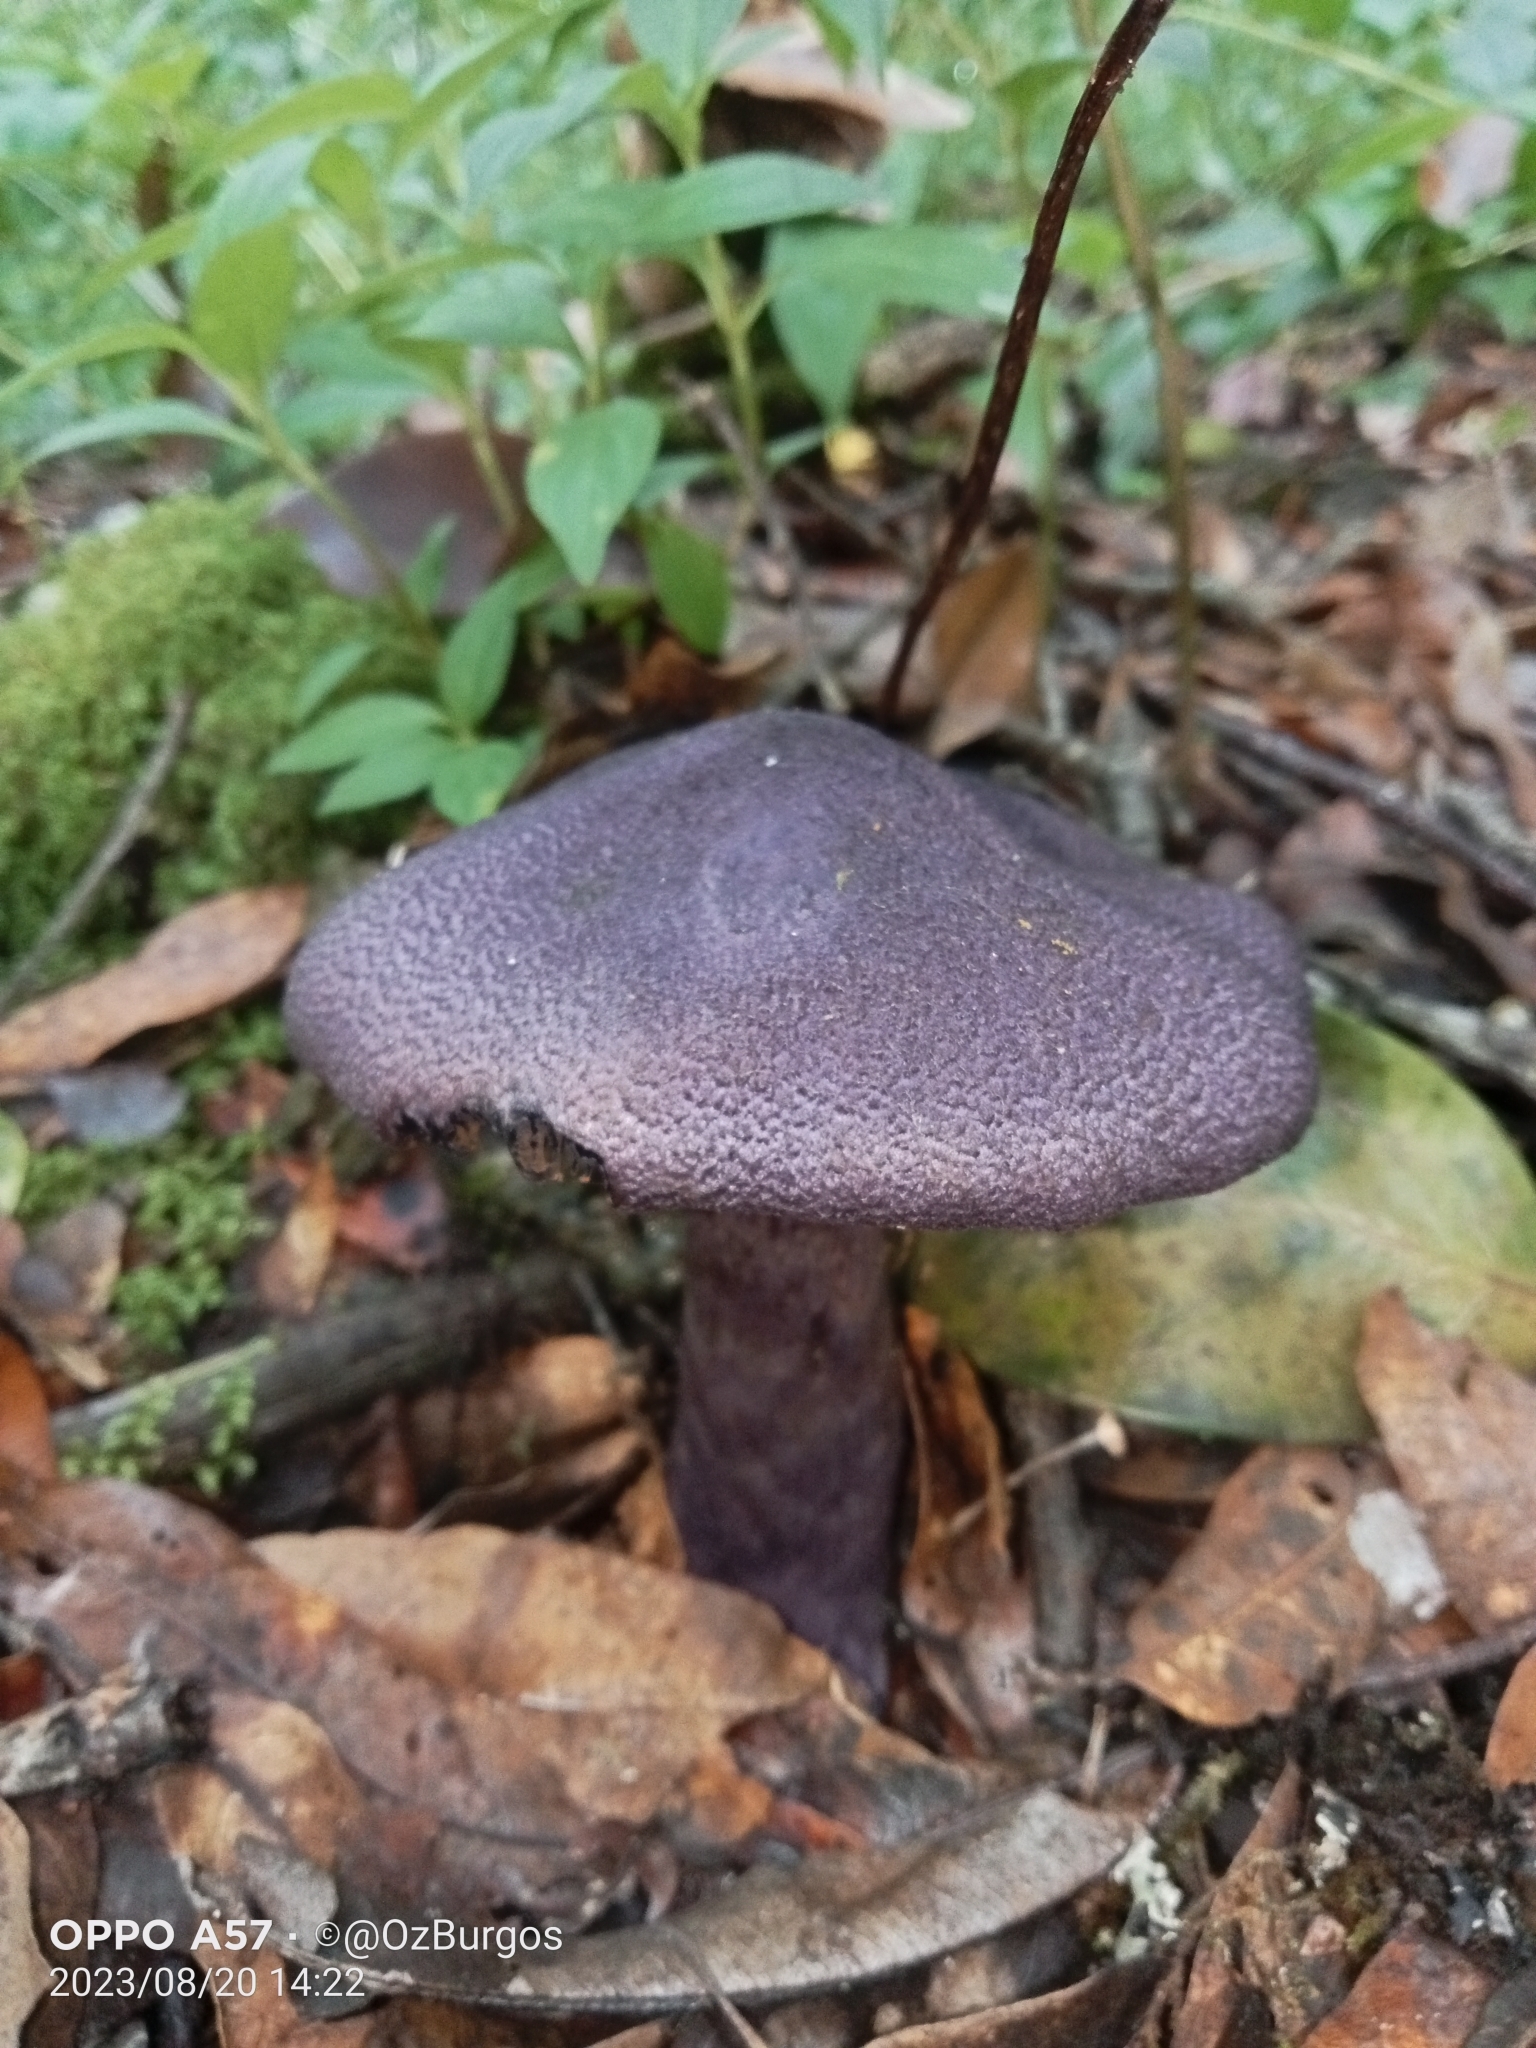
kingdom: Fungi
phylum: Basidiomycota
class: Agaricomycetes
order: Agaricales
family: Cortinariaceae
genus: Cortinarius
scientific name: Cortinarius violaceus
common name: Violet webcap
